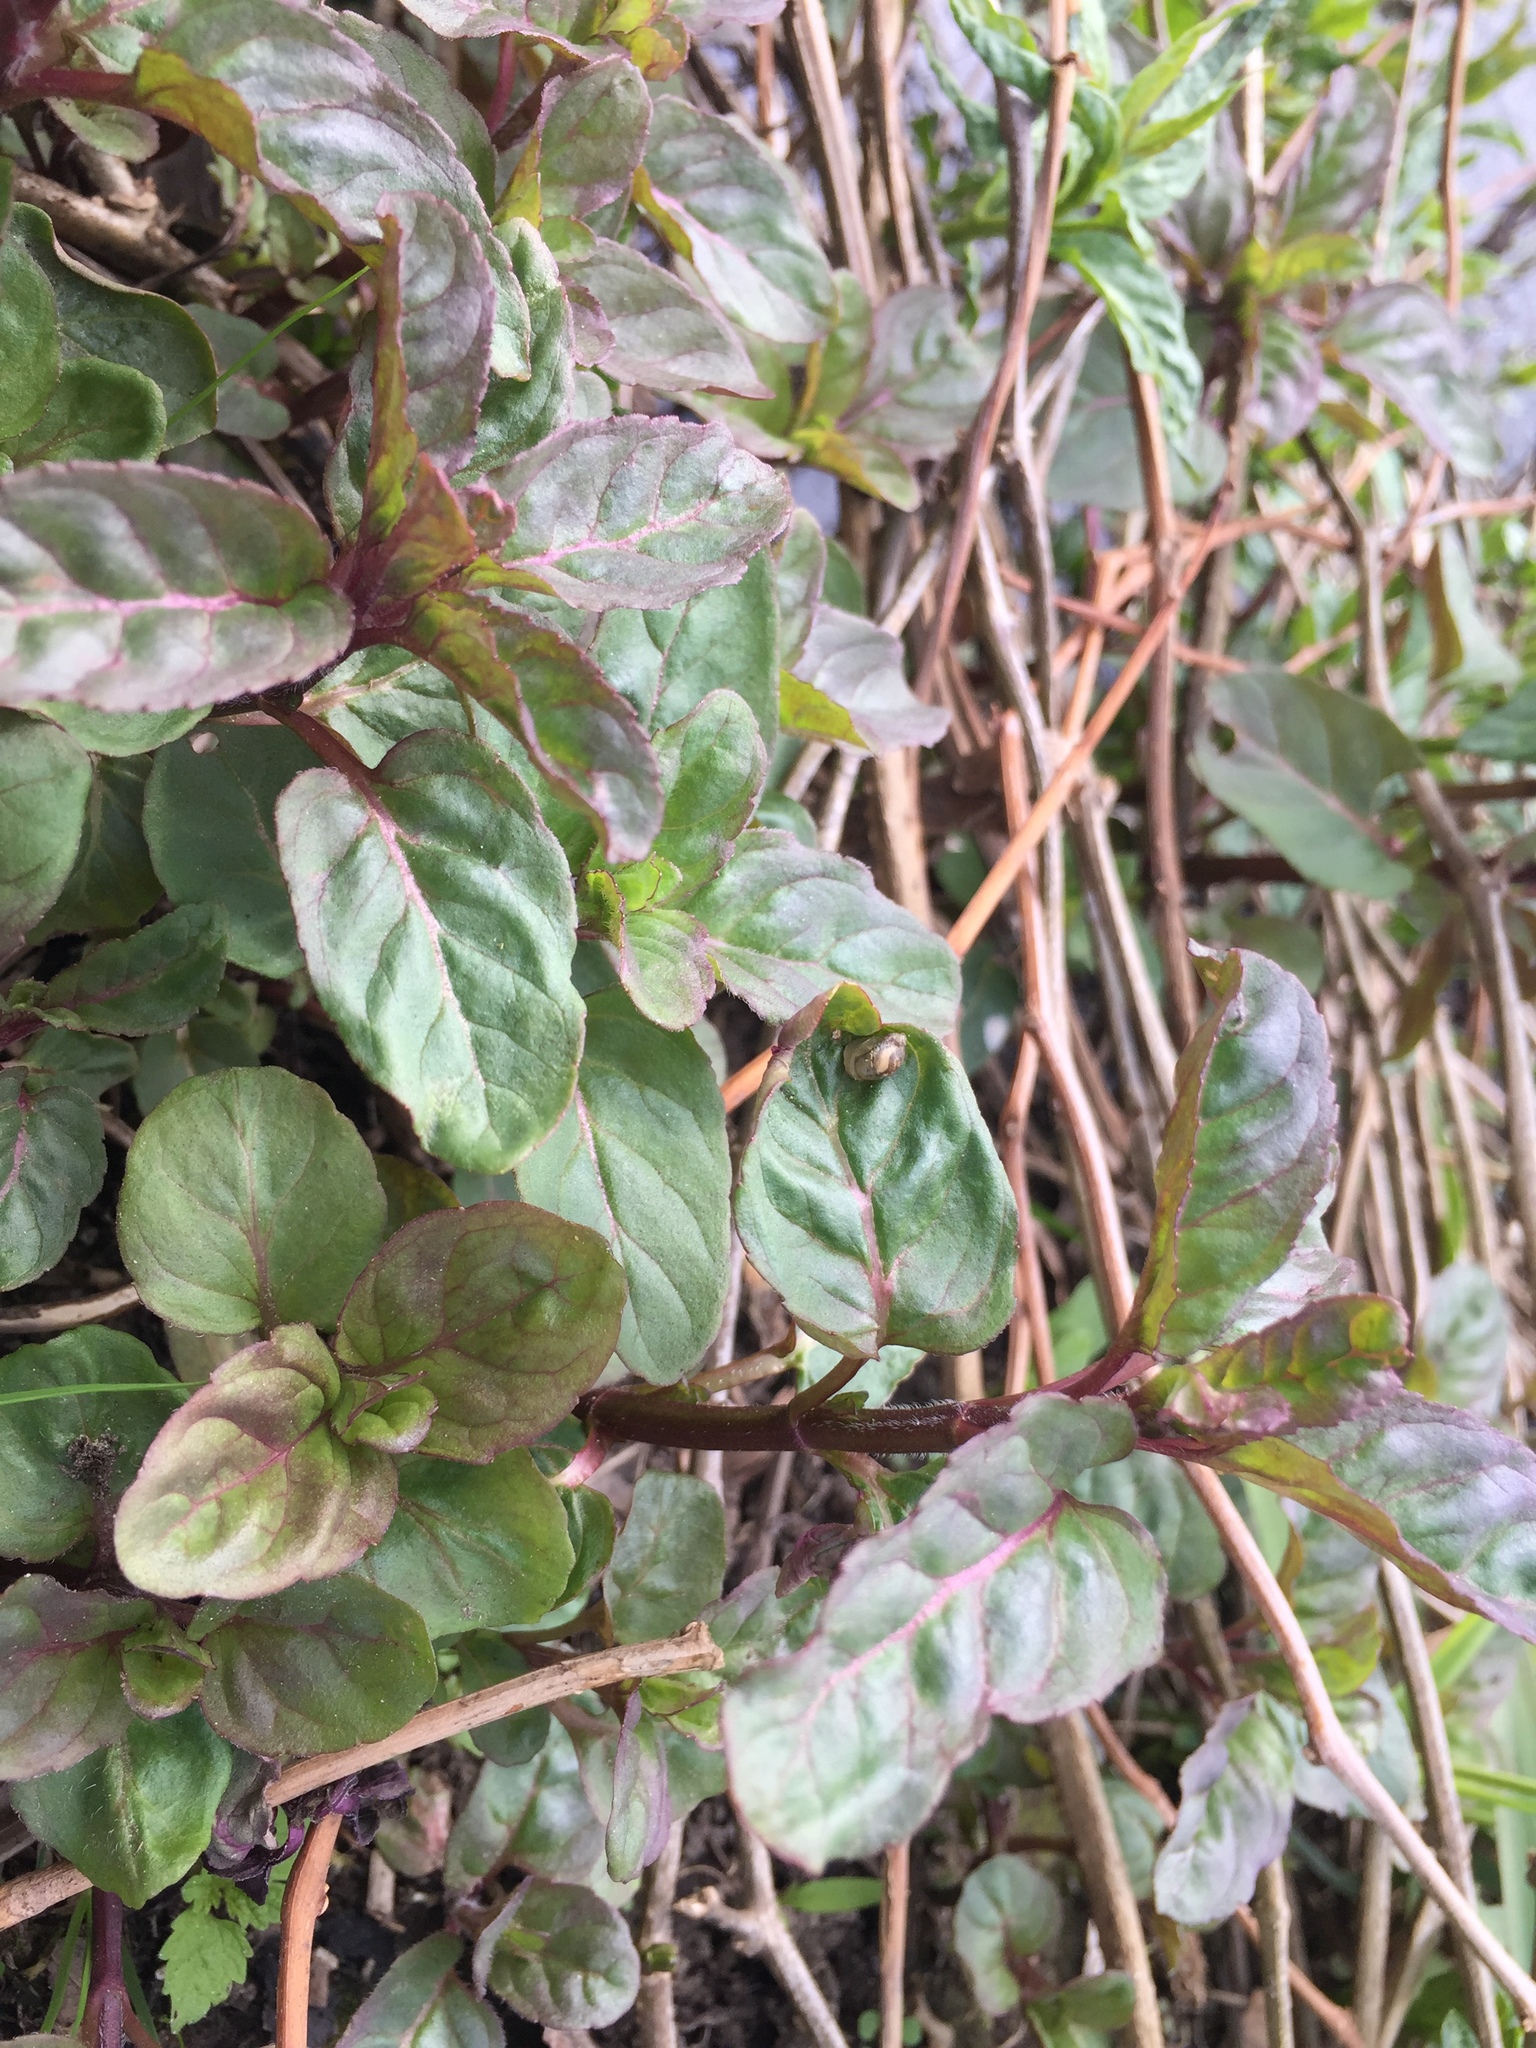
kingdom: Plantae
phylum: Tracheophyta
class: Magnoliopsida
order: Lamiales
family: Lamiaceae
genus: Mentha
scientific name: Mentha aquatica
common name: Water mint
